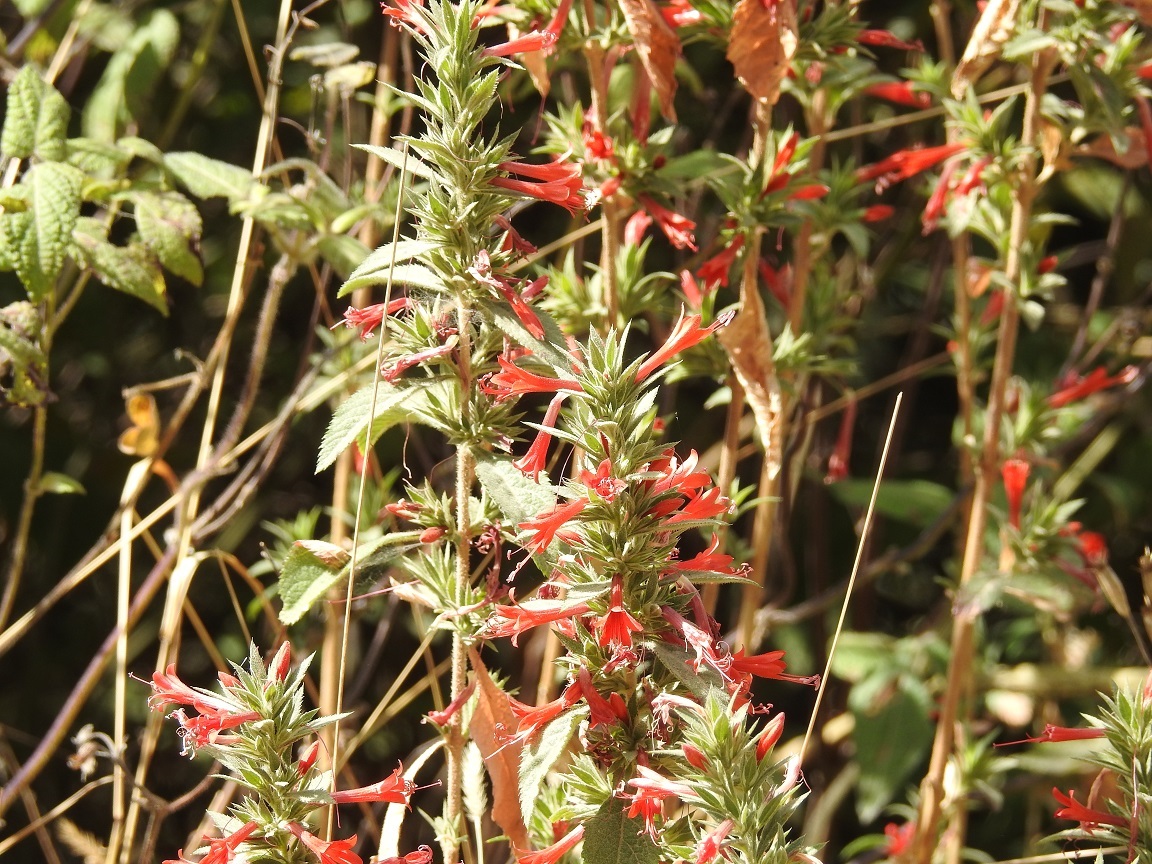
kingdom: Plantae
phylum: Tracheophyta
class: Magnoliopsida
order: Ericales
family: Polemoniaceae
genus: Loeselia
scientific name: Loeselia mexicana
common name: Mexican false calico
